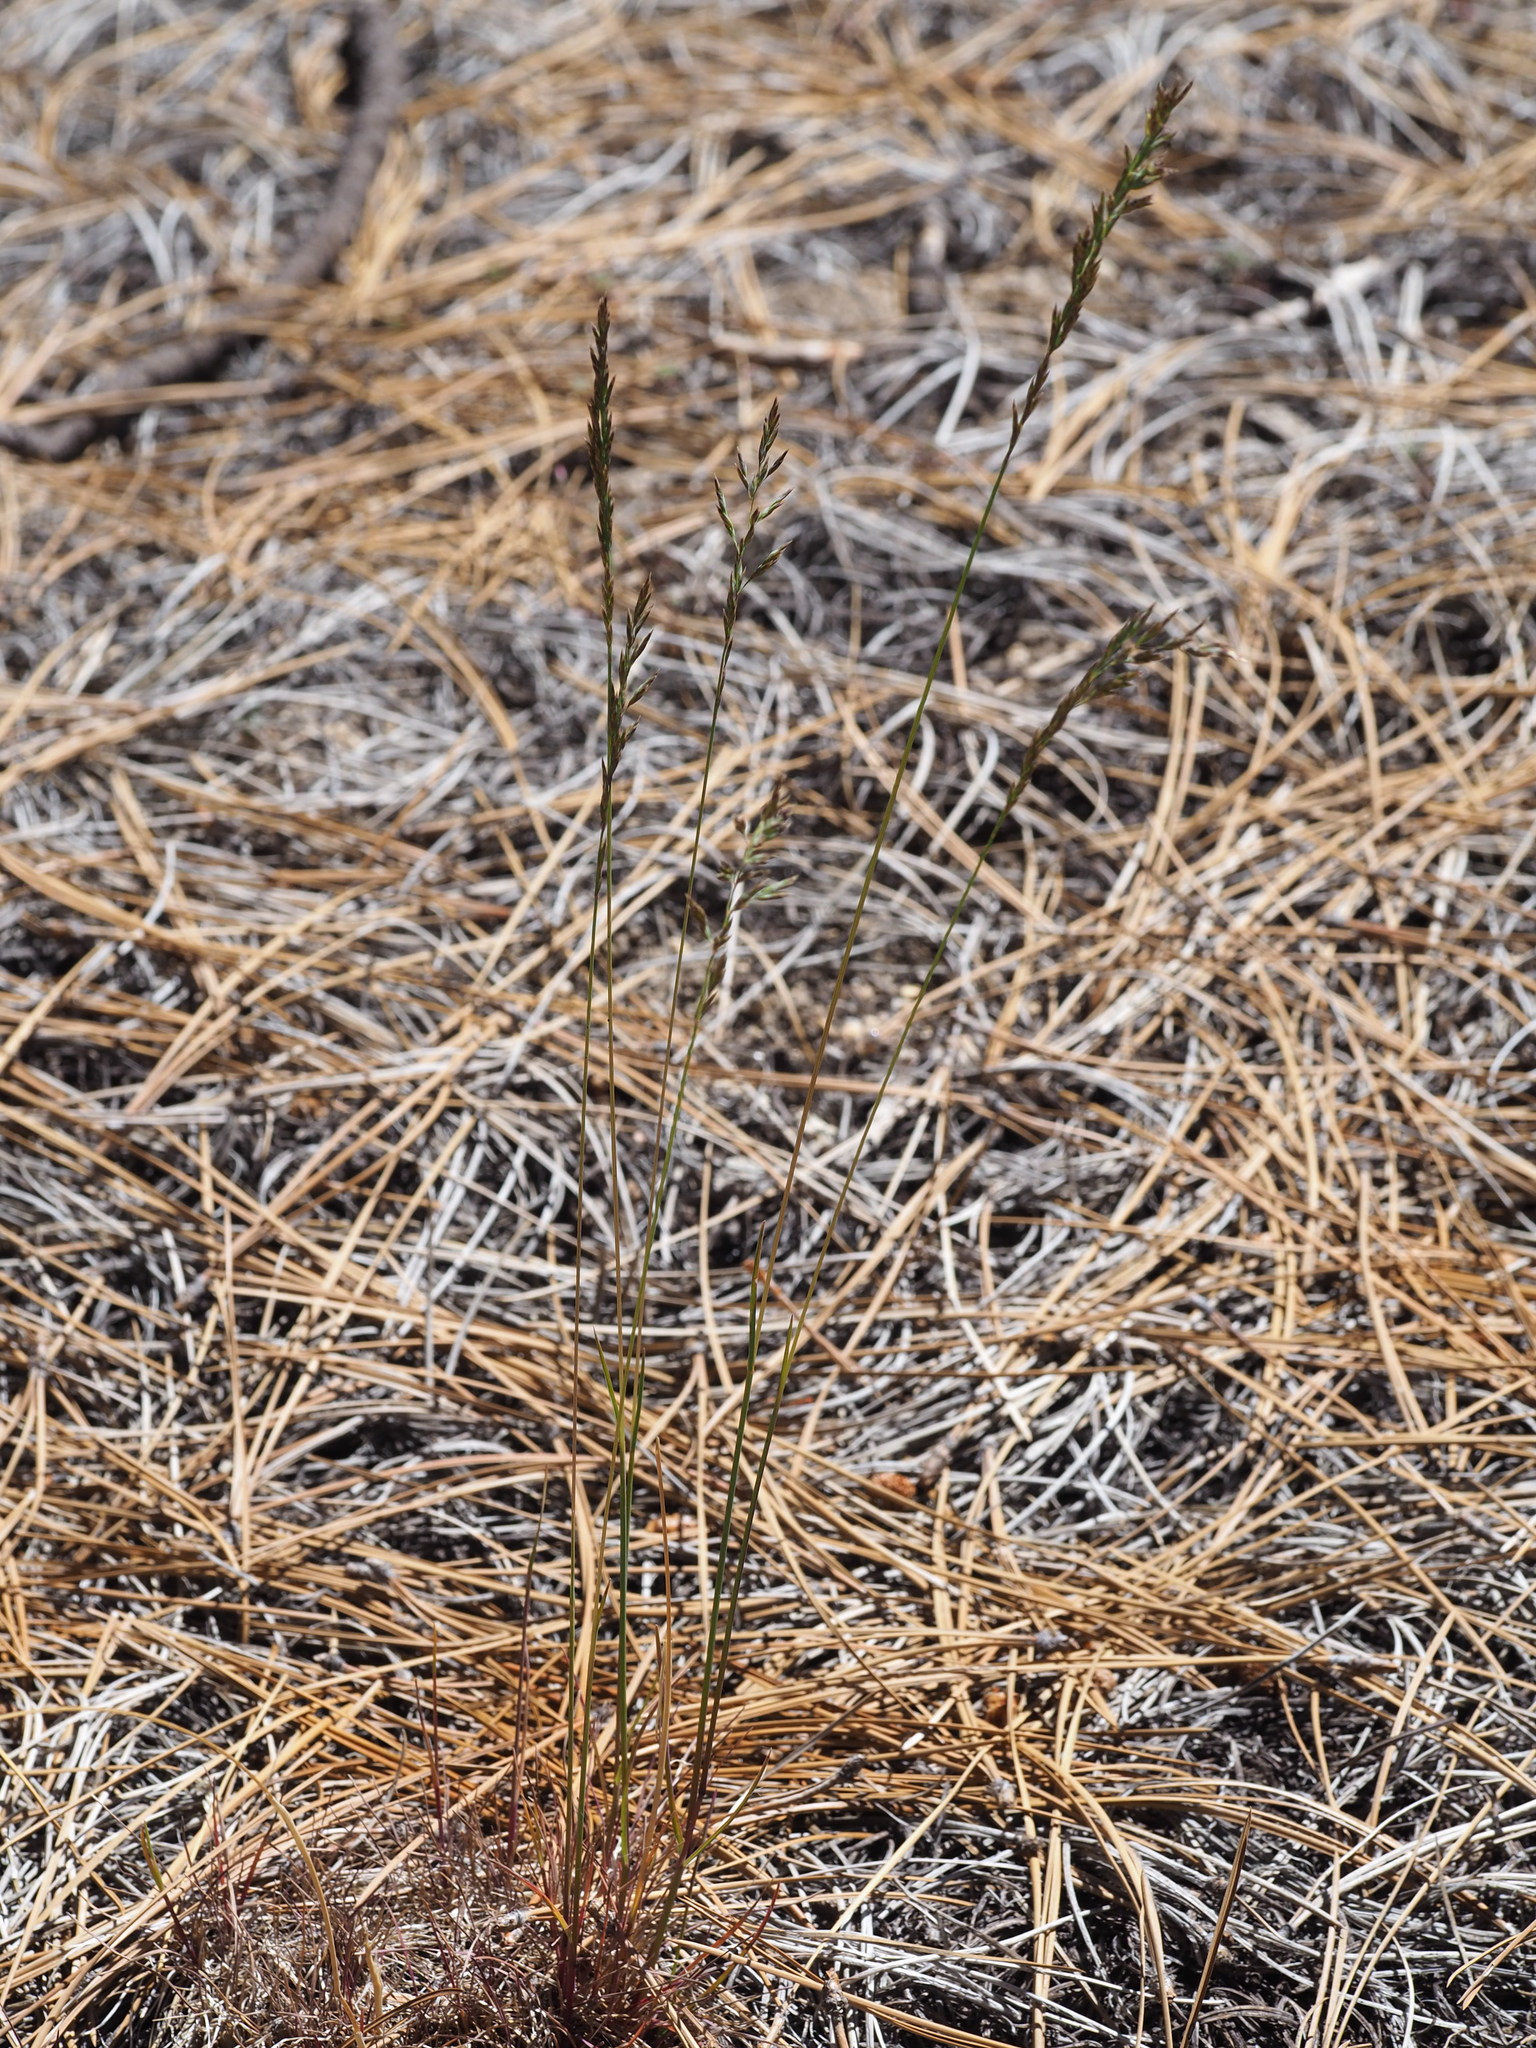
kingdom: Plantae
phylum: Tracheophyta
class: Liliopsida
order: Poales
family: Poaceae
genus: Poa
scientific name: Poa secunda
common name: Sandberg bluegrass
